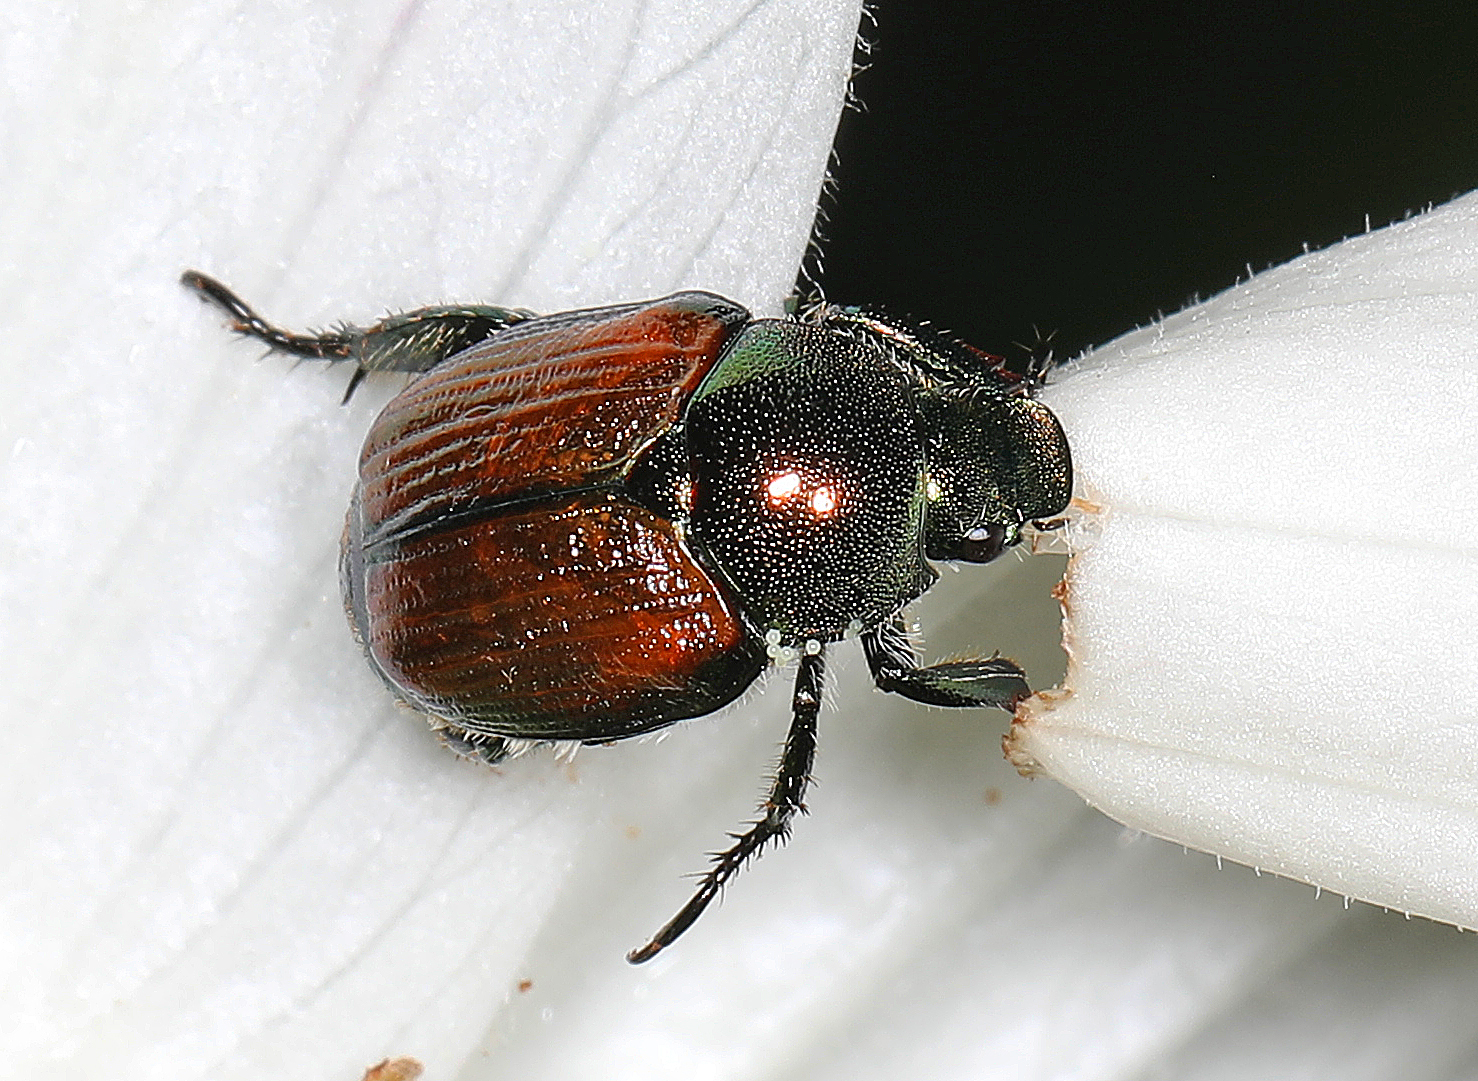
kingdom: Animalia
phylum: Arthropoda
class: Insecta
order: Coleoptera
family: Scarabaeidae
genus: Popillia
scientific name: Popillia japonica
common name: Japanese beetle
